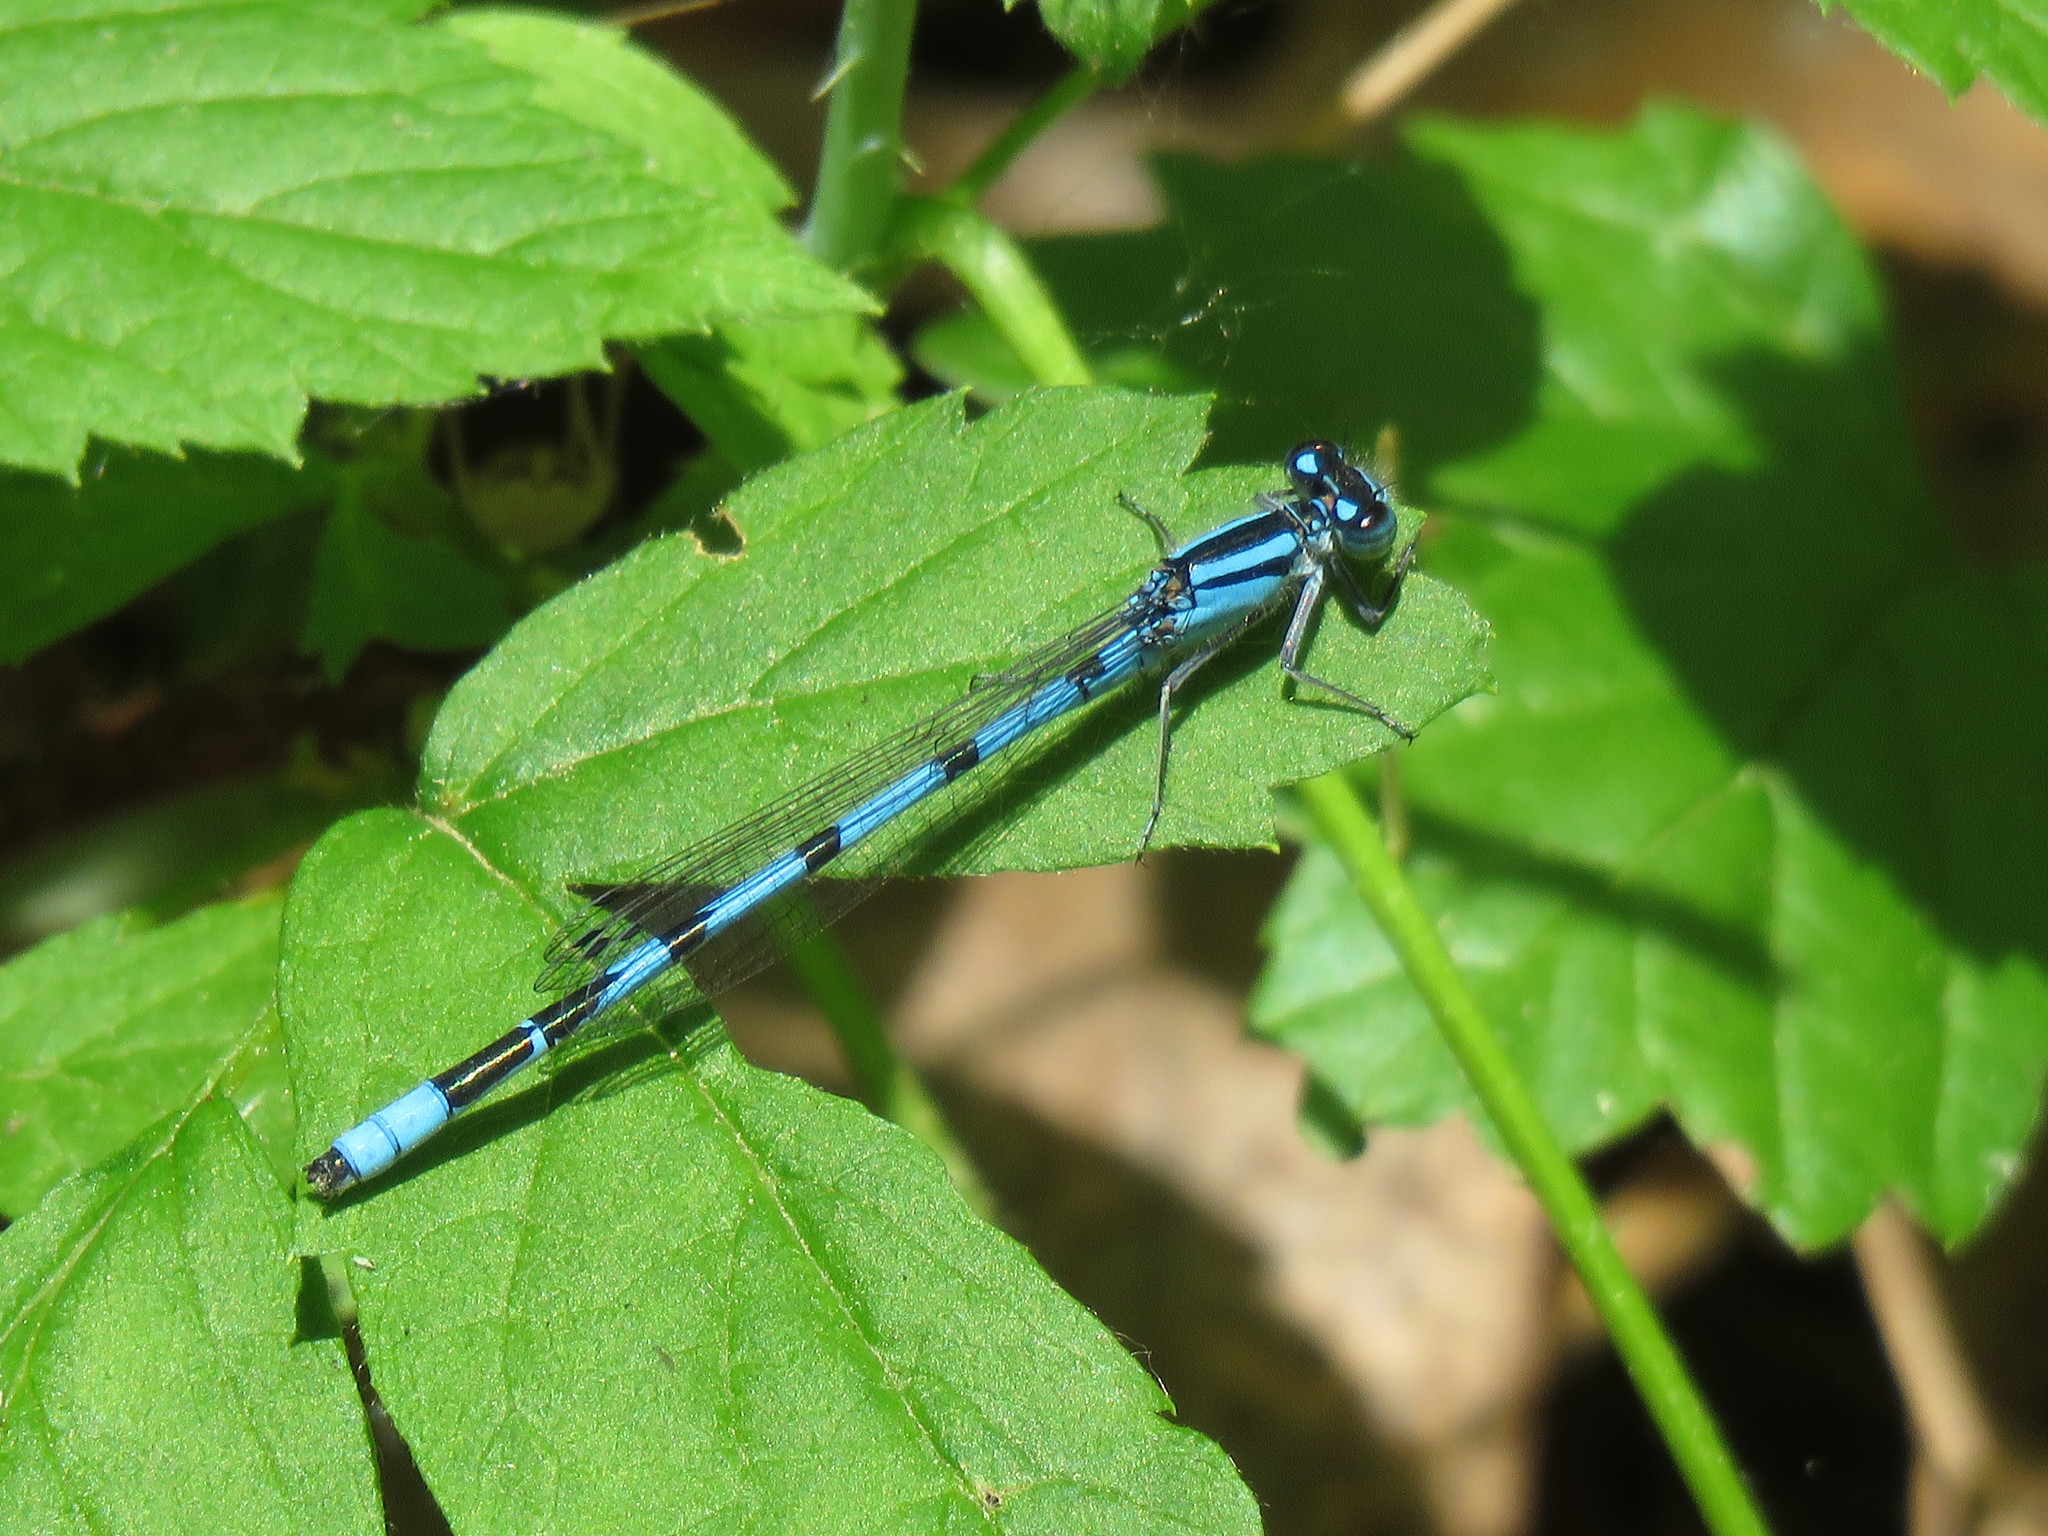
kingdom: Animalia
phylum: Arthropoda
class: Insecta
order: Odonata
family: Coenagrionidae
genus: Enallagma
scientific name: Enallagma ebrium
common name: Marsh bluet
